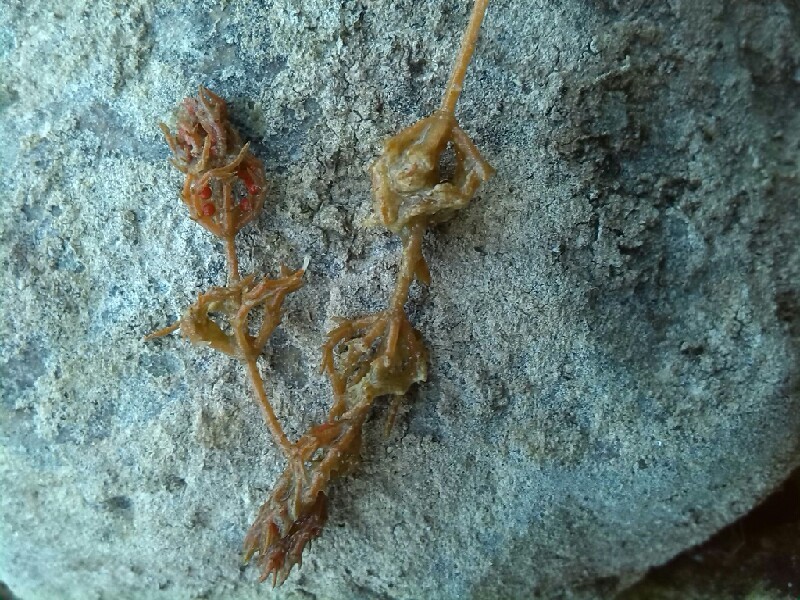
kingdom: Plantae
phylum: Charophyta
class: Charophyceae
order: Charales
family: Characeae
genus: Chara
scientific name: Chara tomentosa
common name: Coral stonewort
